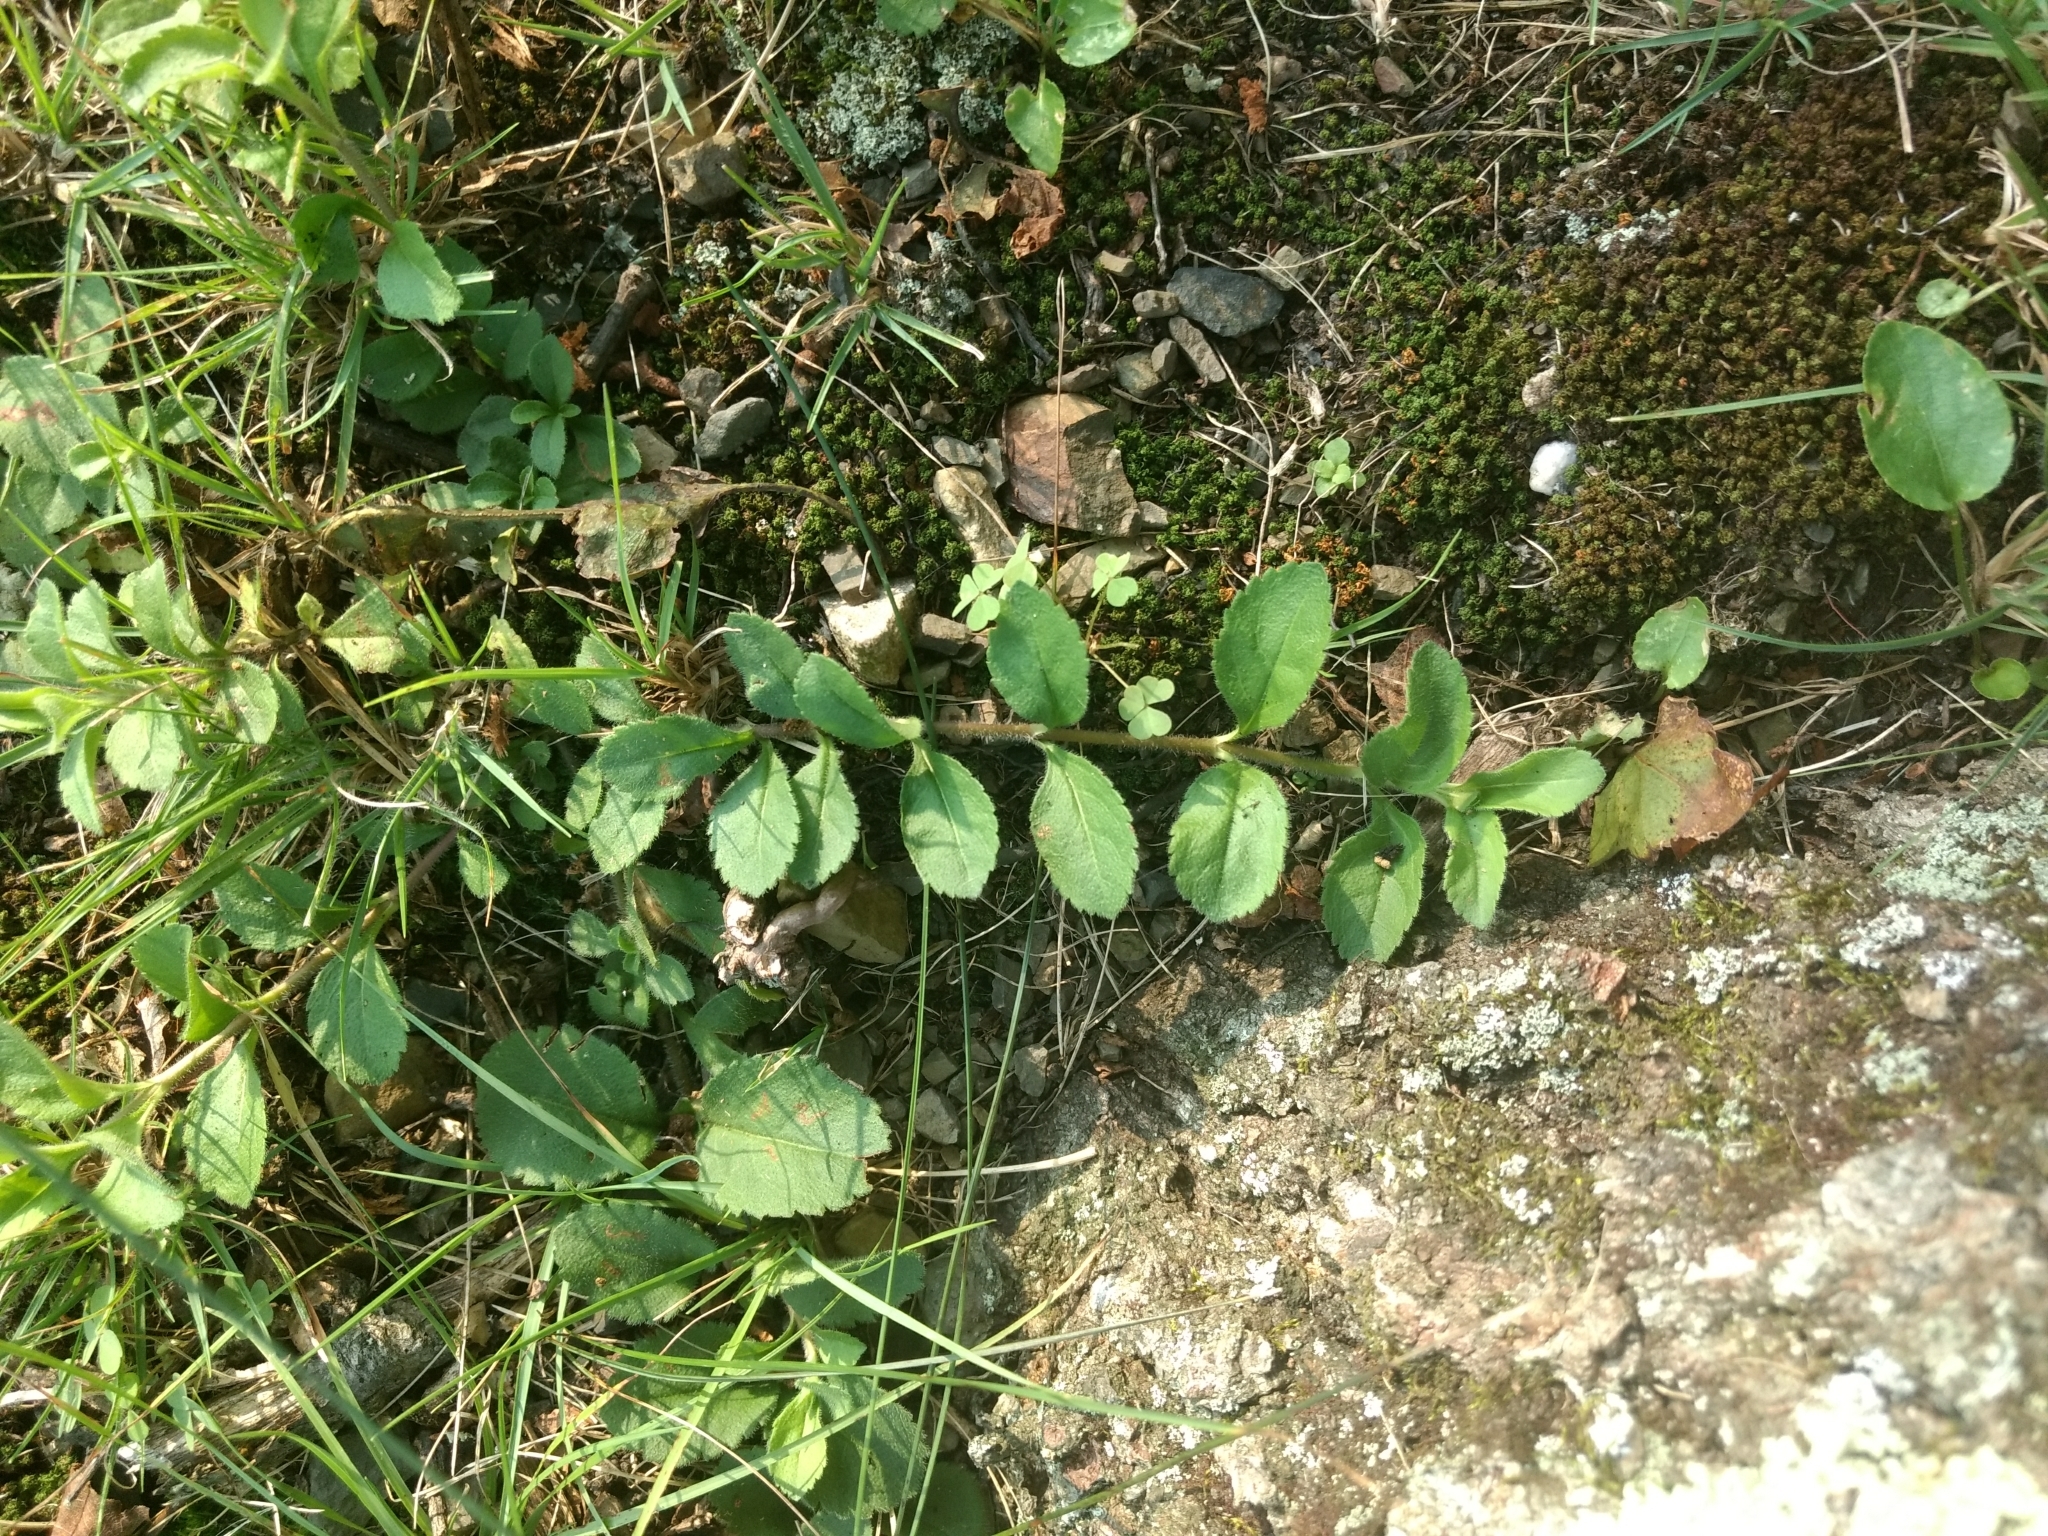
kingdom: Plantae
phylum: Tracheophyta
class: Magnoliopsida
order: Lamiales
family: Plantaginaceae
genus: Veronica
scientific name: Veronica officinalis
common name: Common speedwell
